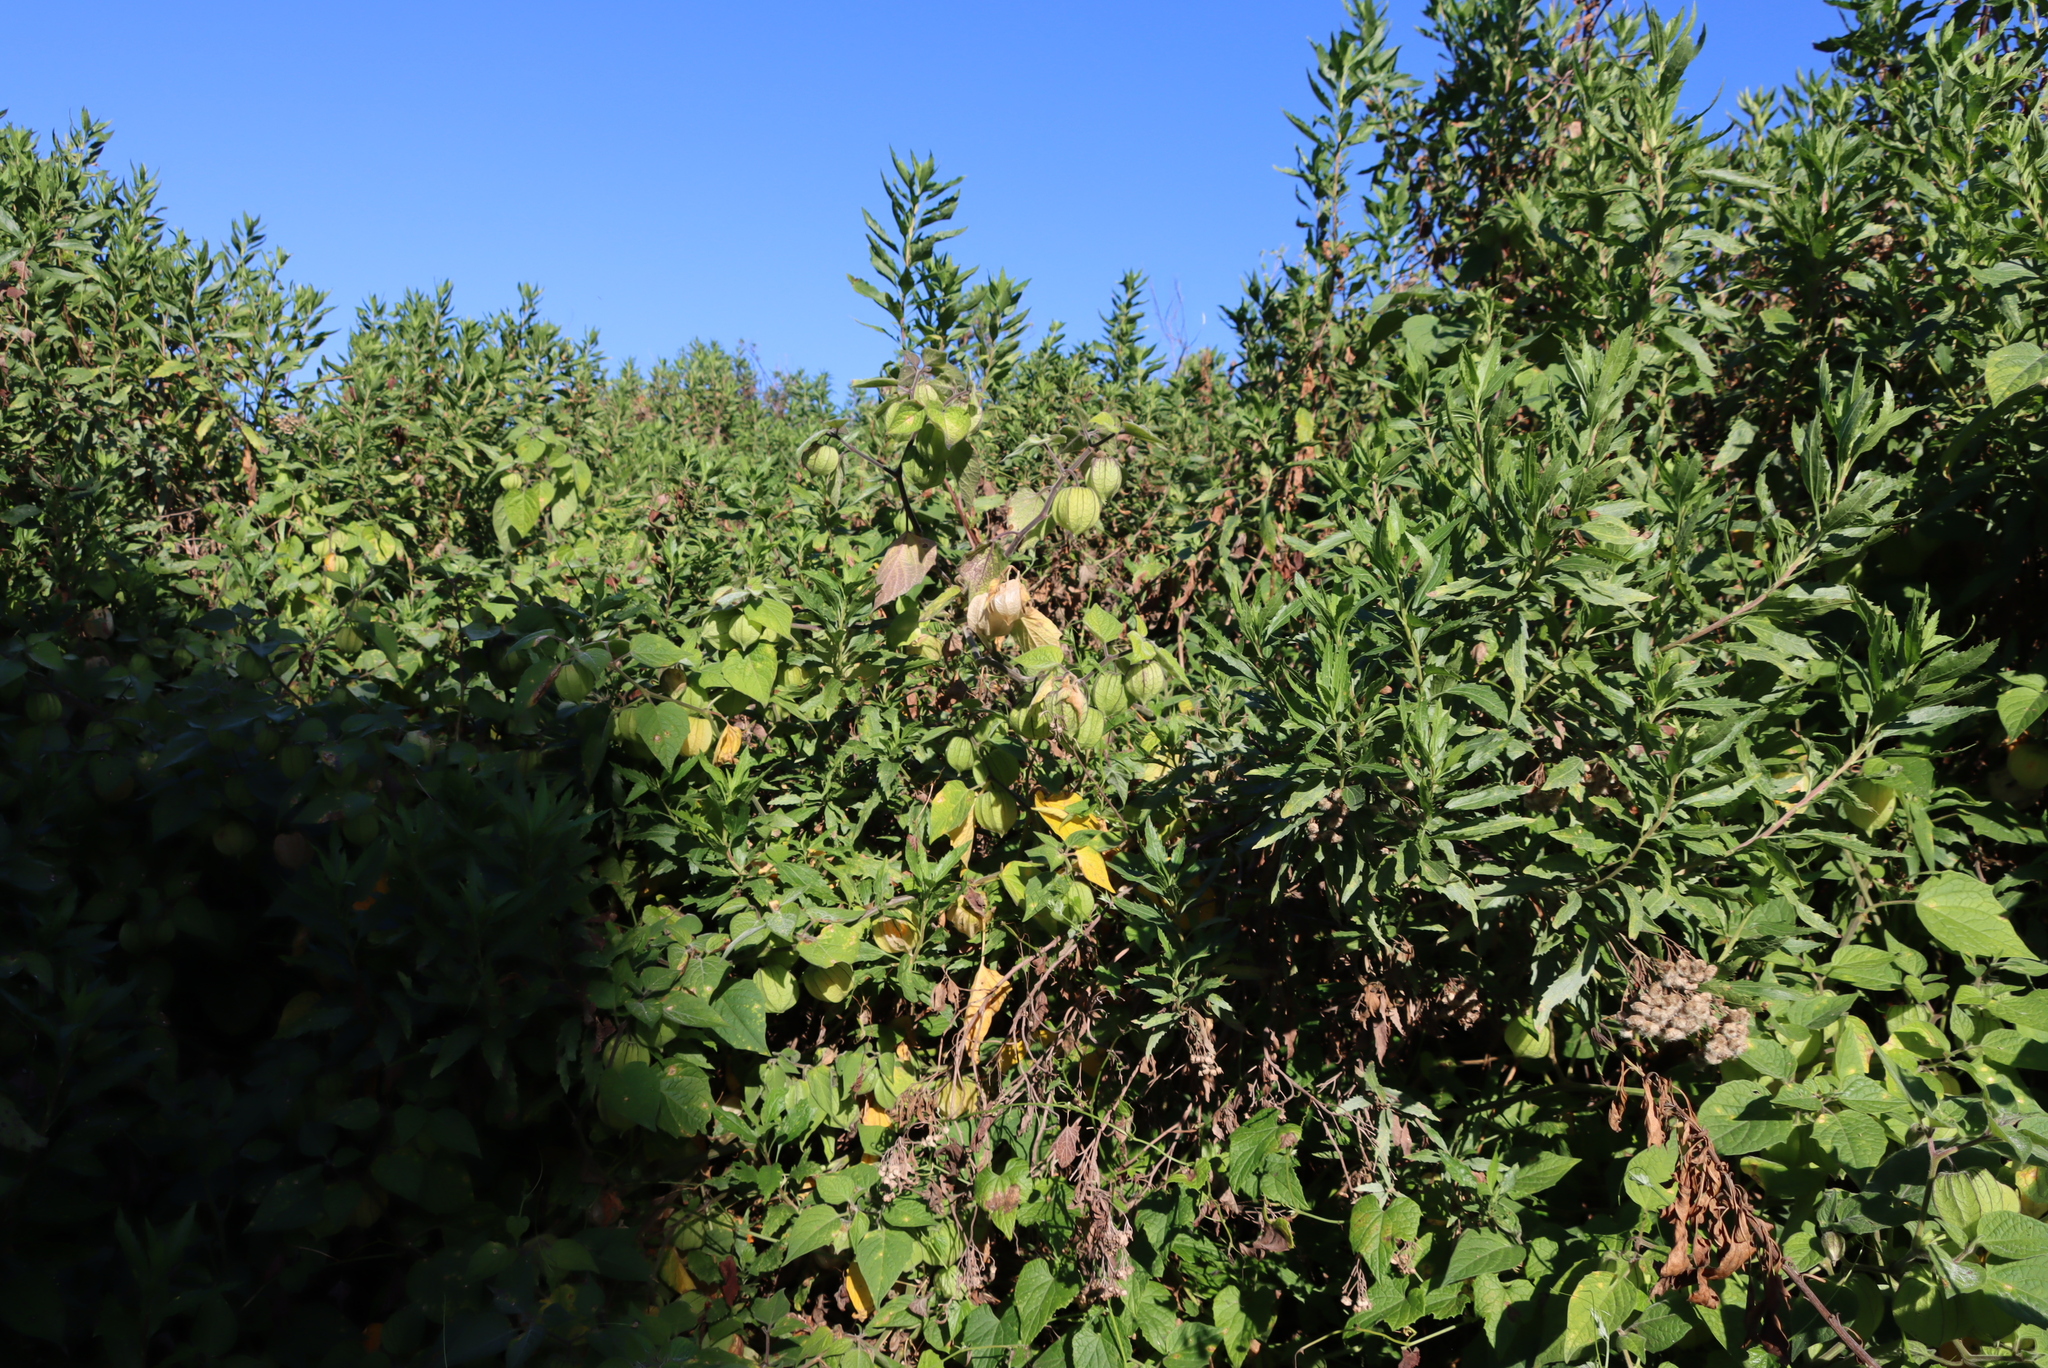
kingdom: Plantae
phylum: Tracheophyta
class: Magnoliopsida
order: Solanales
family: Solanaceae
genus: Physalis
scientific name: Physalis peruviana
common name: Cape-gooseberry
